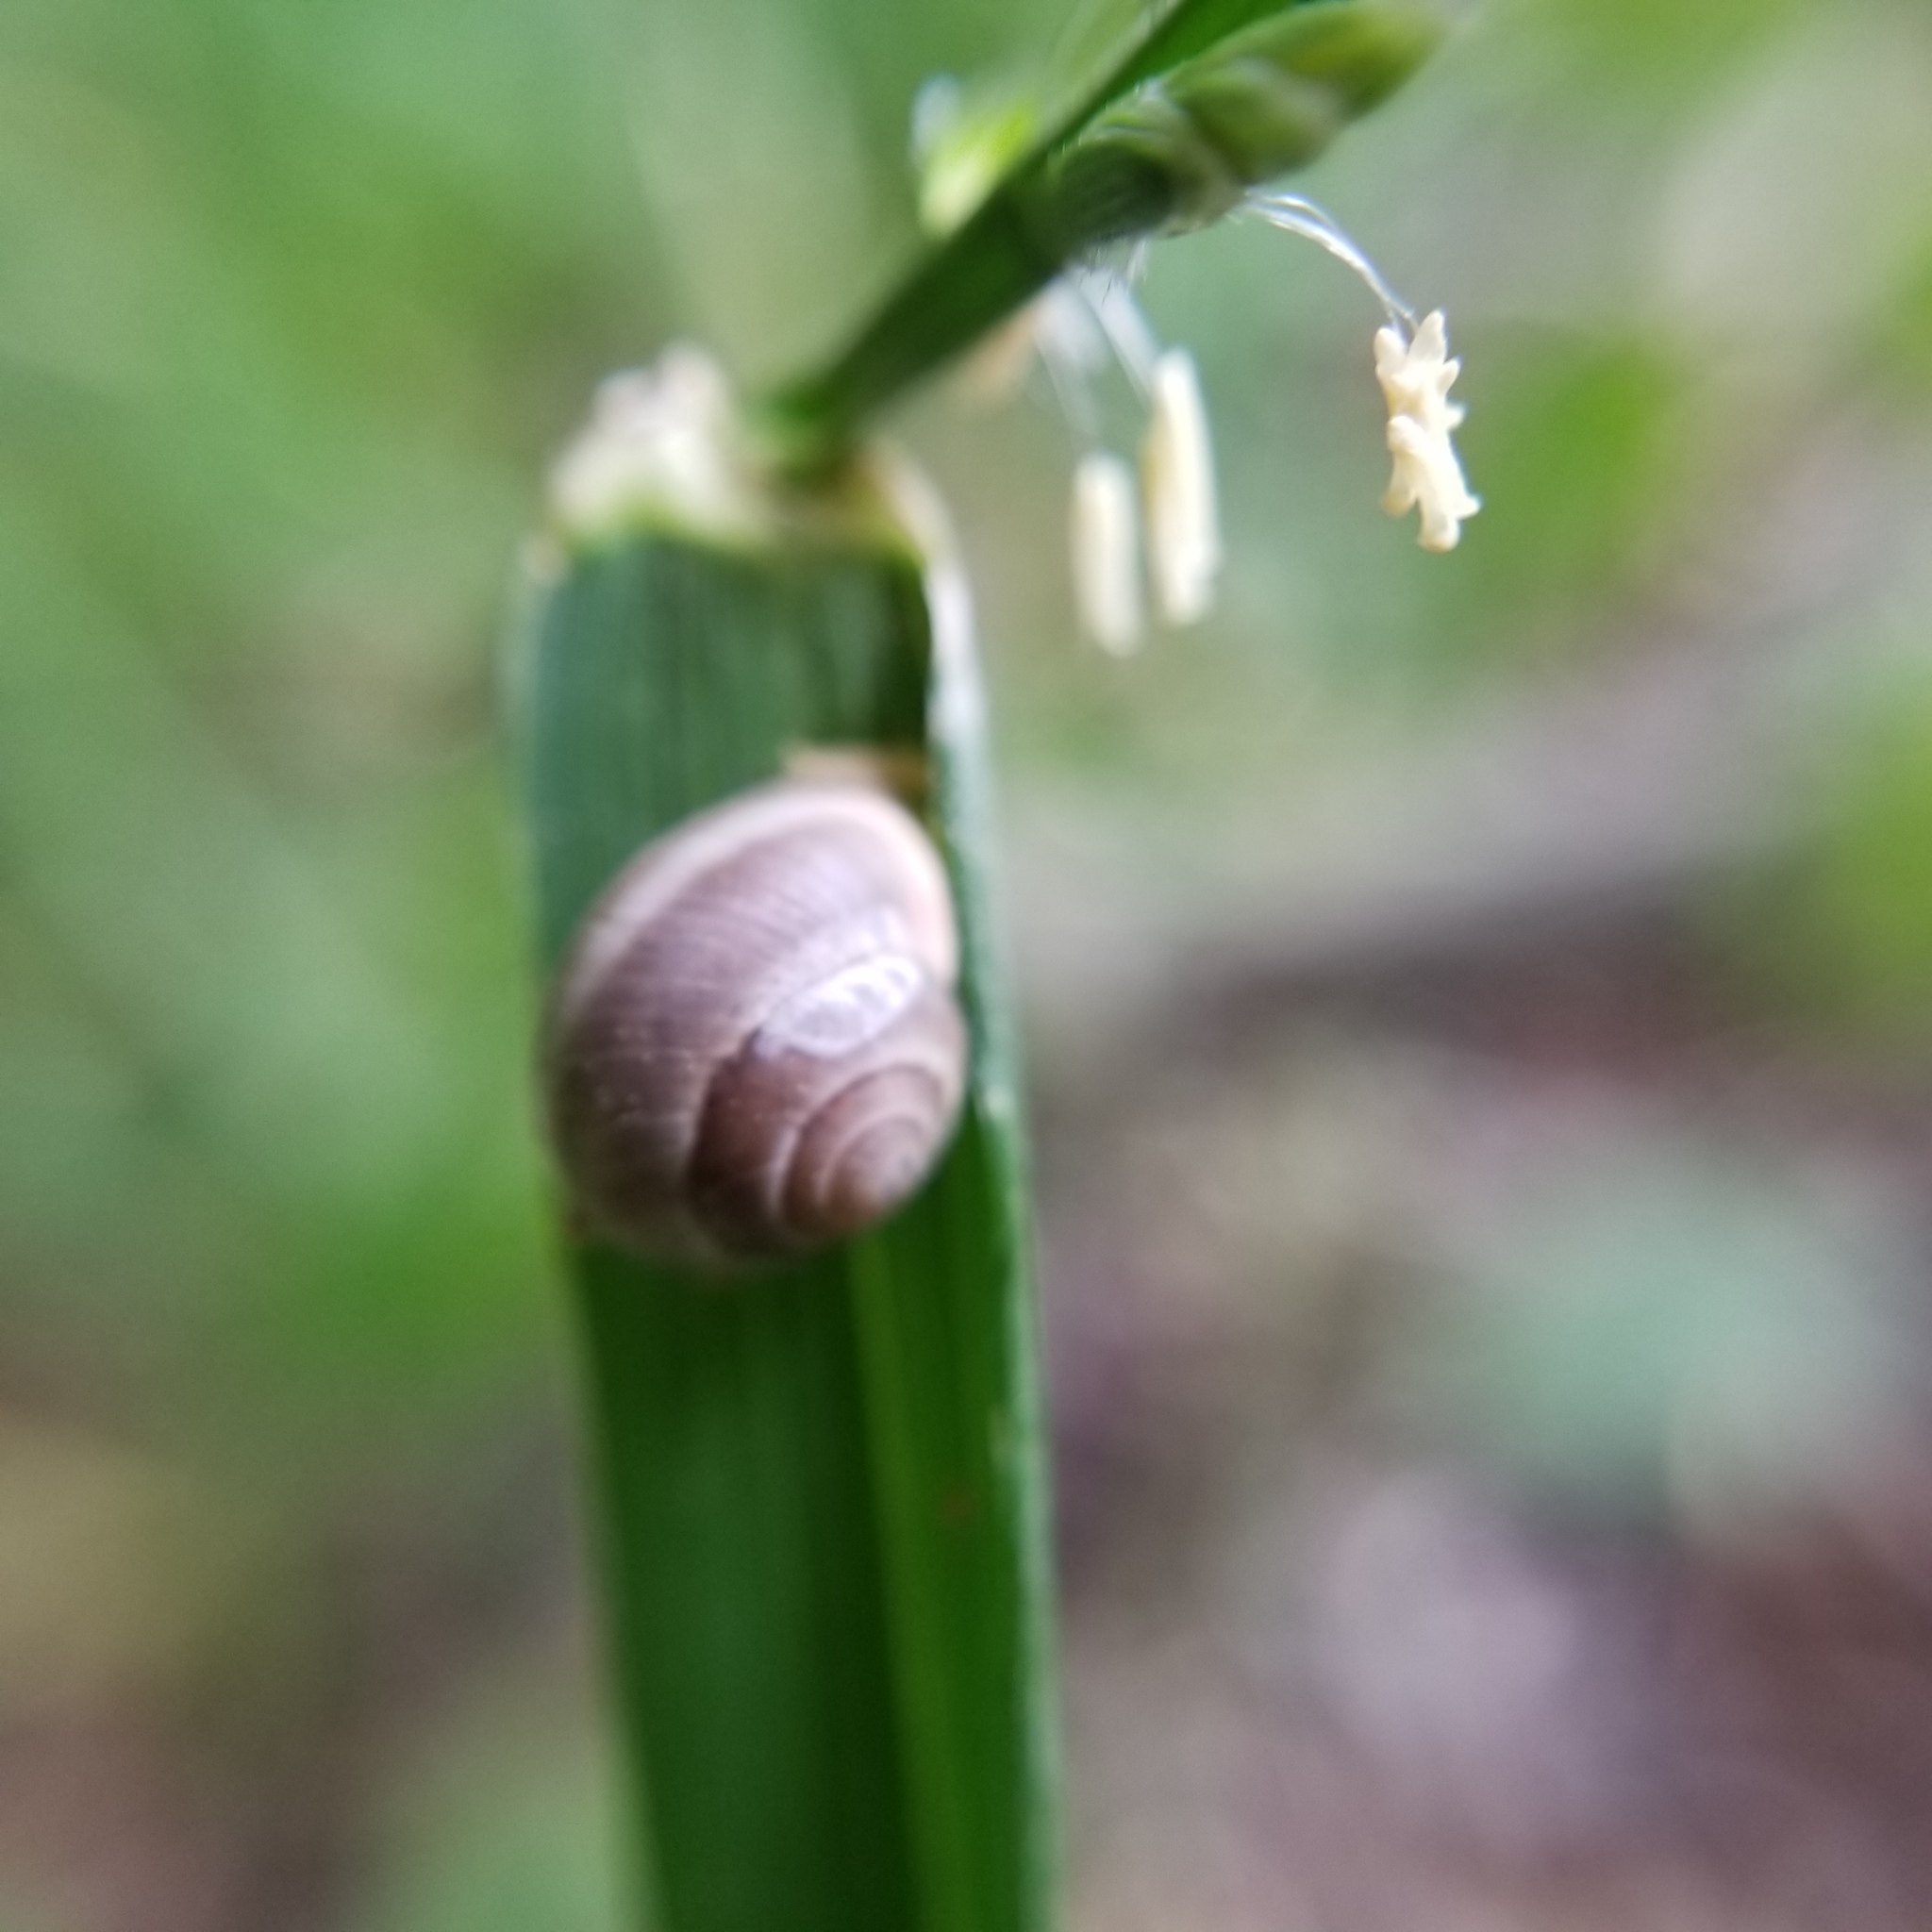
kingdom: Animalia
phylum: Mollusca
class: Gastropoda
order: Cycloneritida
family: Helicinidae
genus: Helicina
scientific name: Helicina orbiculata
